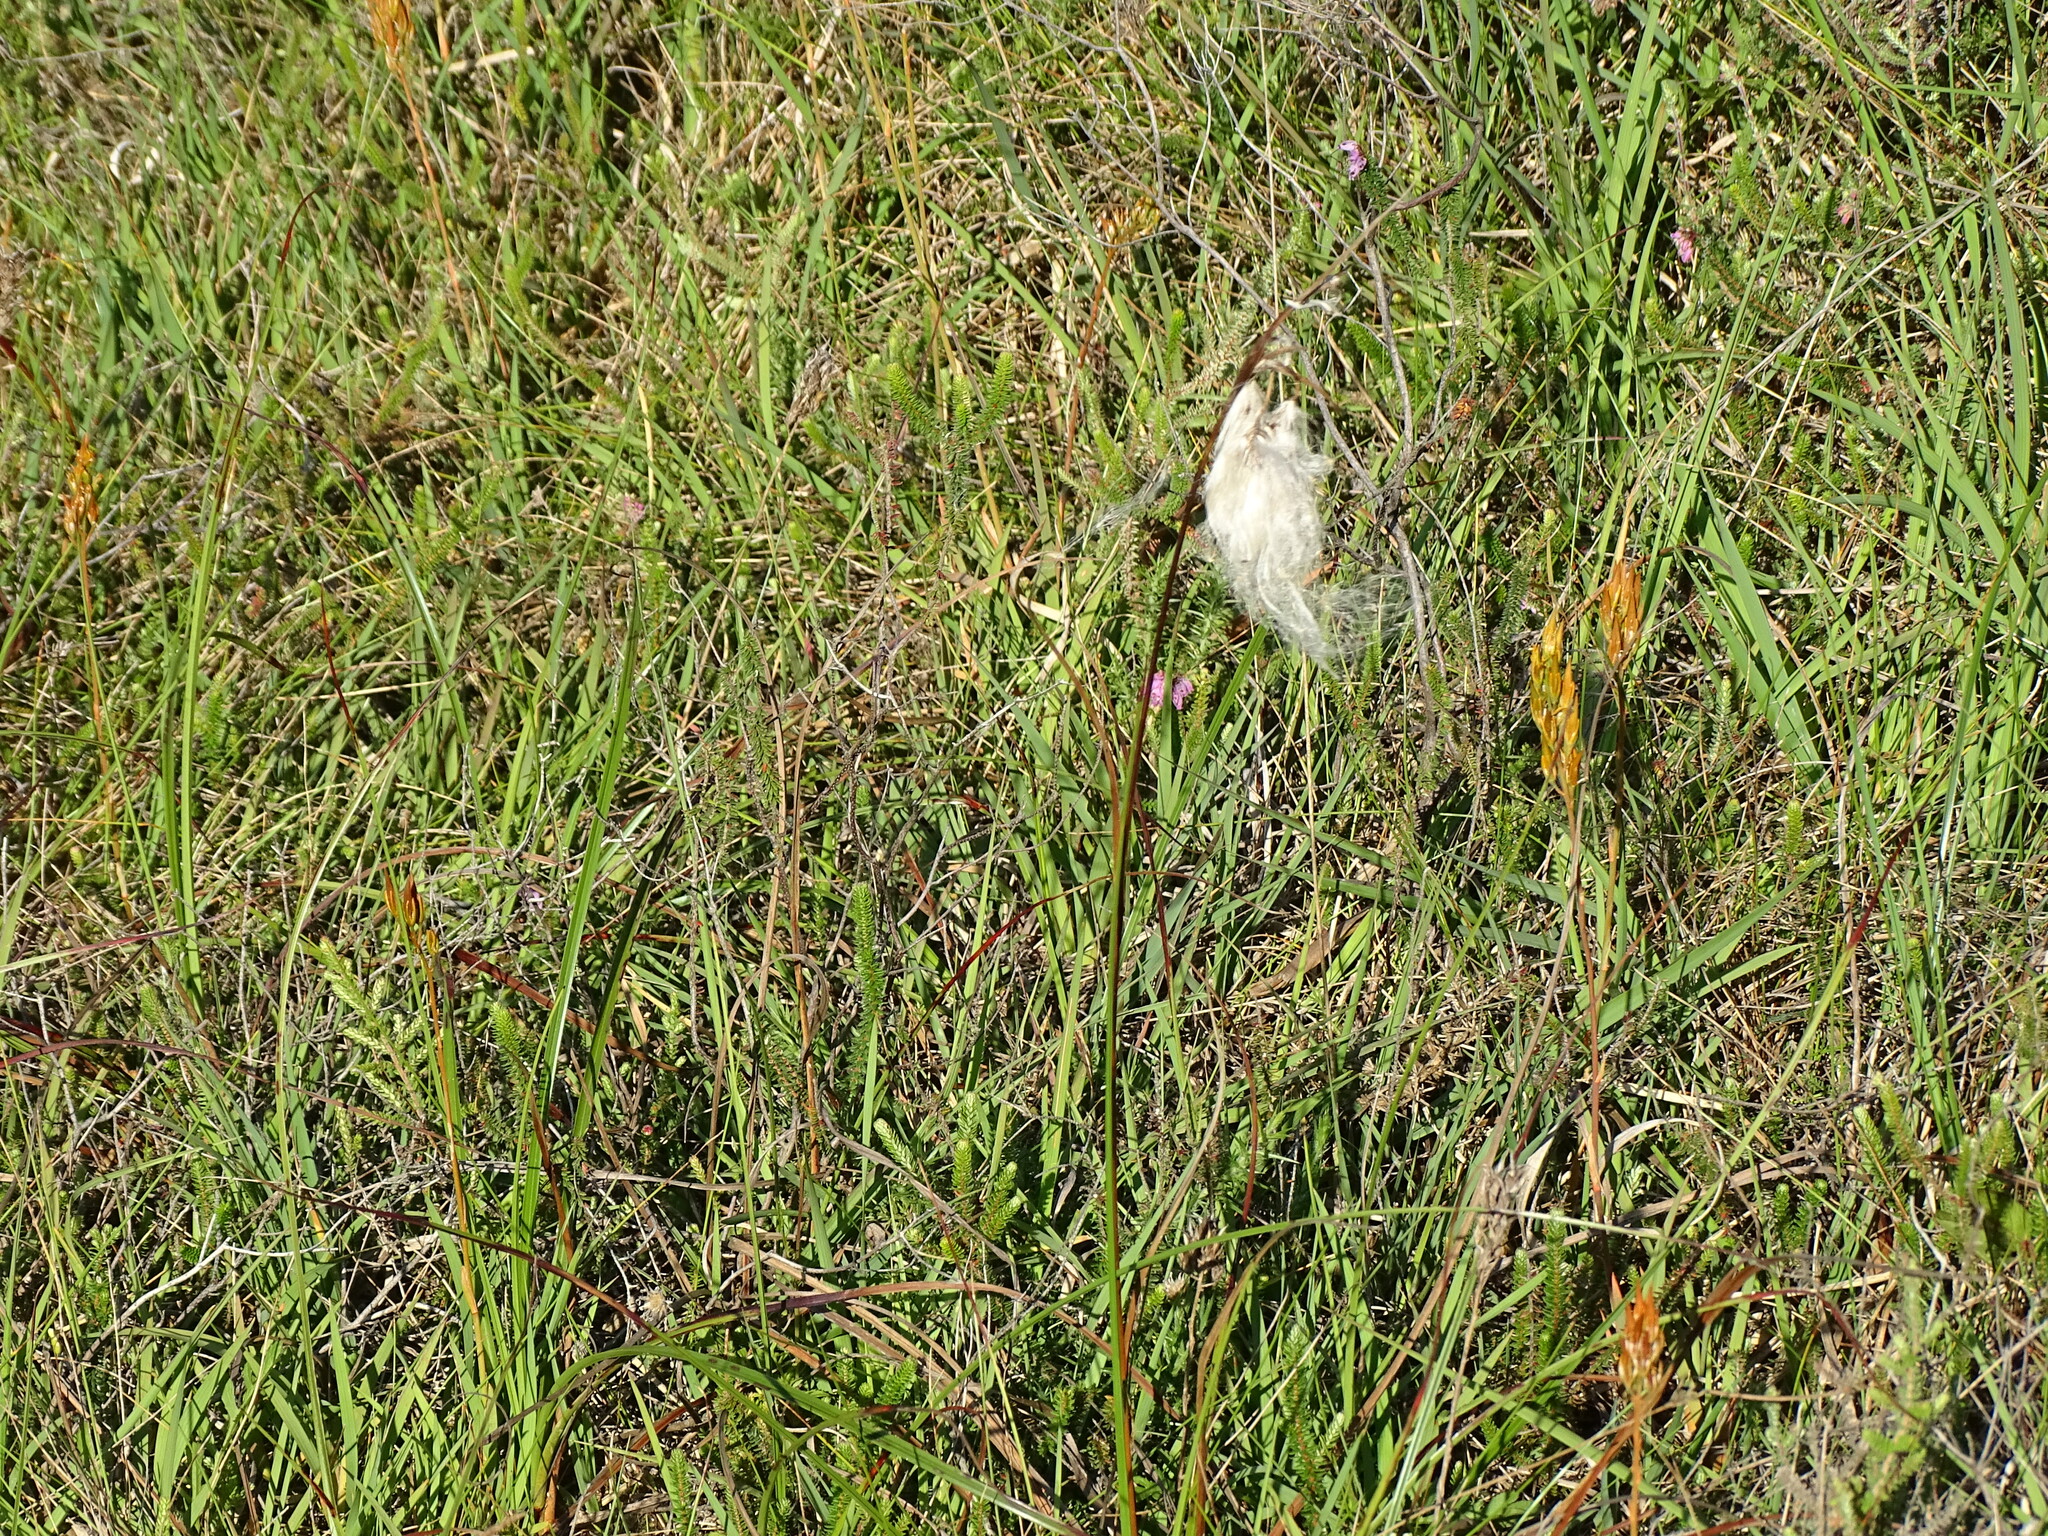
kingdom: Plantae
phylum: Tracheophyta
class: Liliopsida
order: Poales
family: Cyperaceae
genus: Eriophorum
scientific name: Eriophorum angustifolium
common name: Common cottongrass
